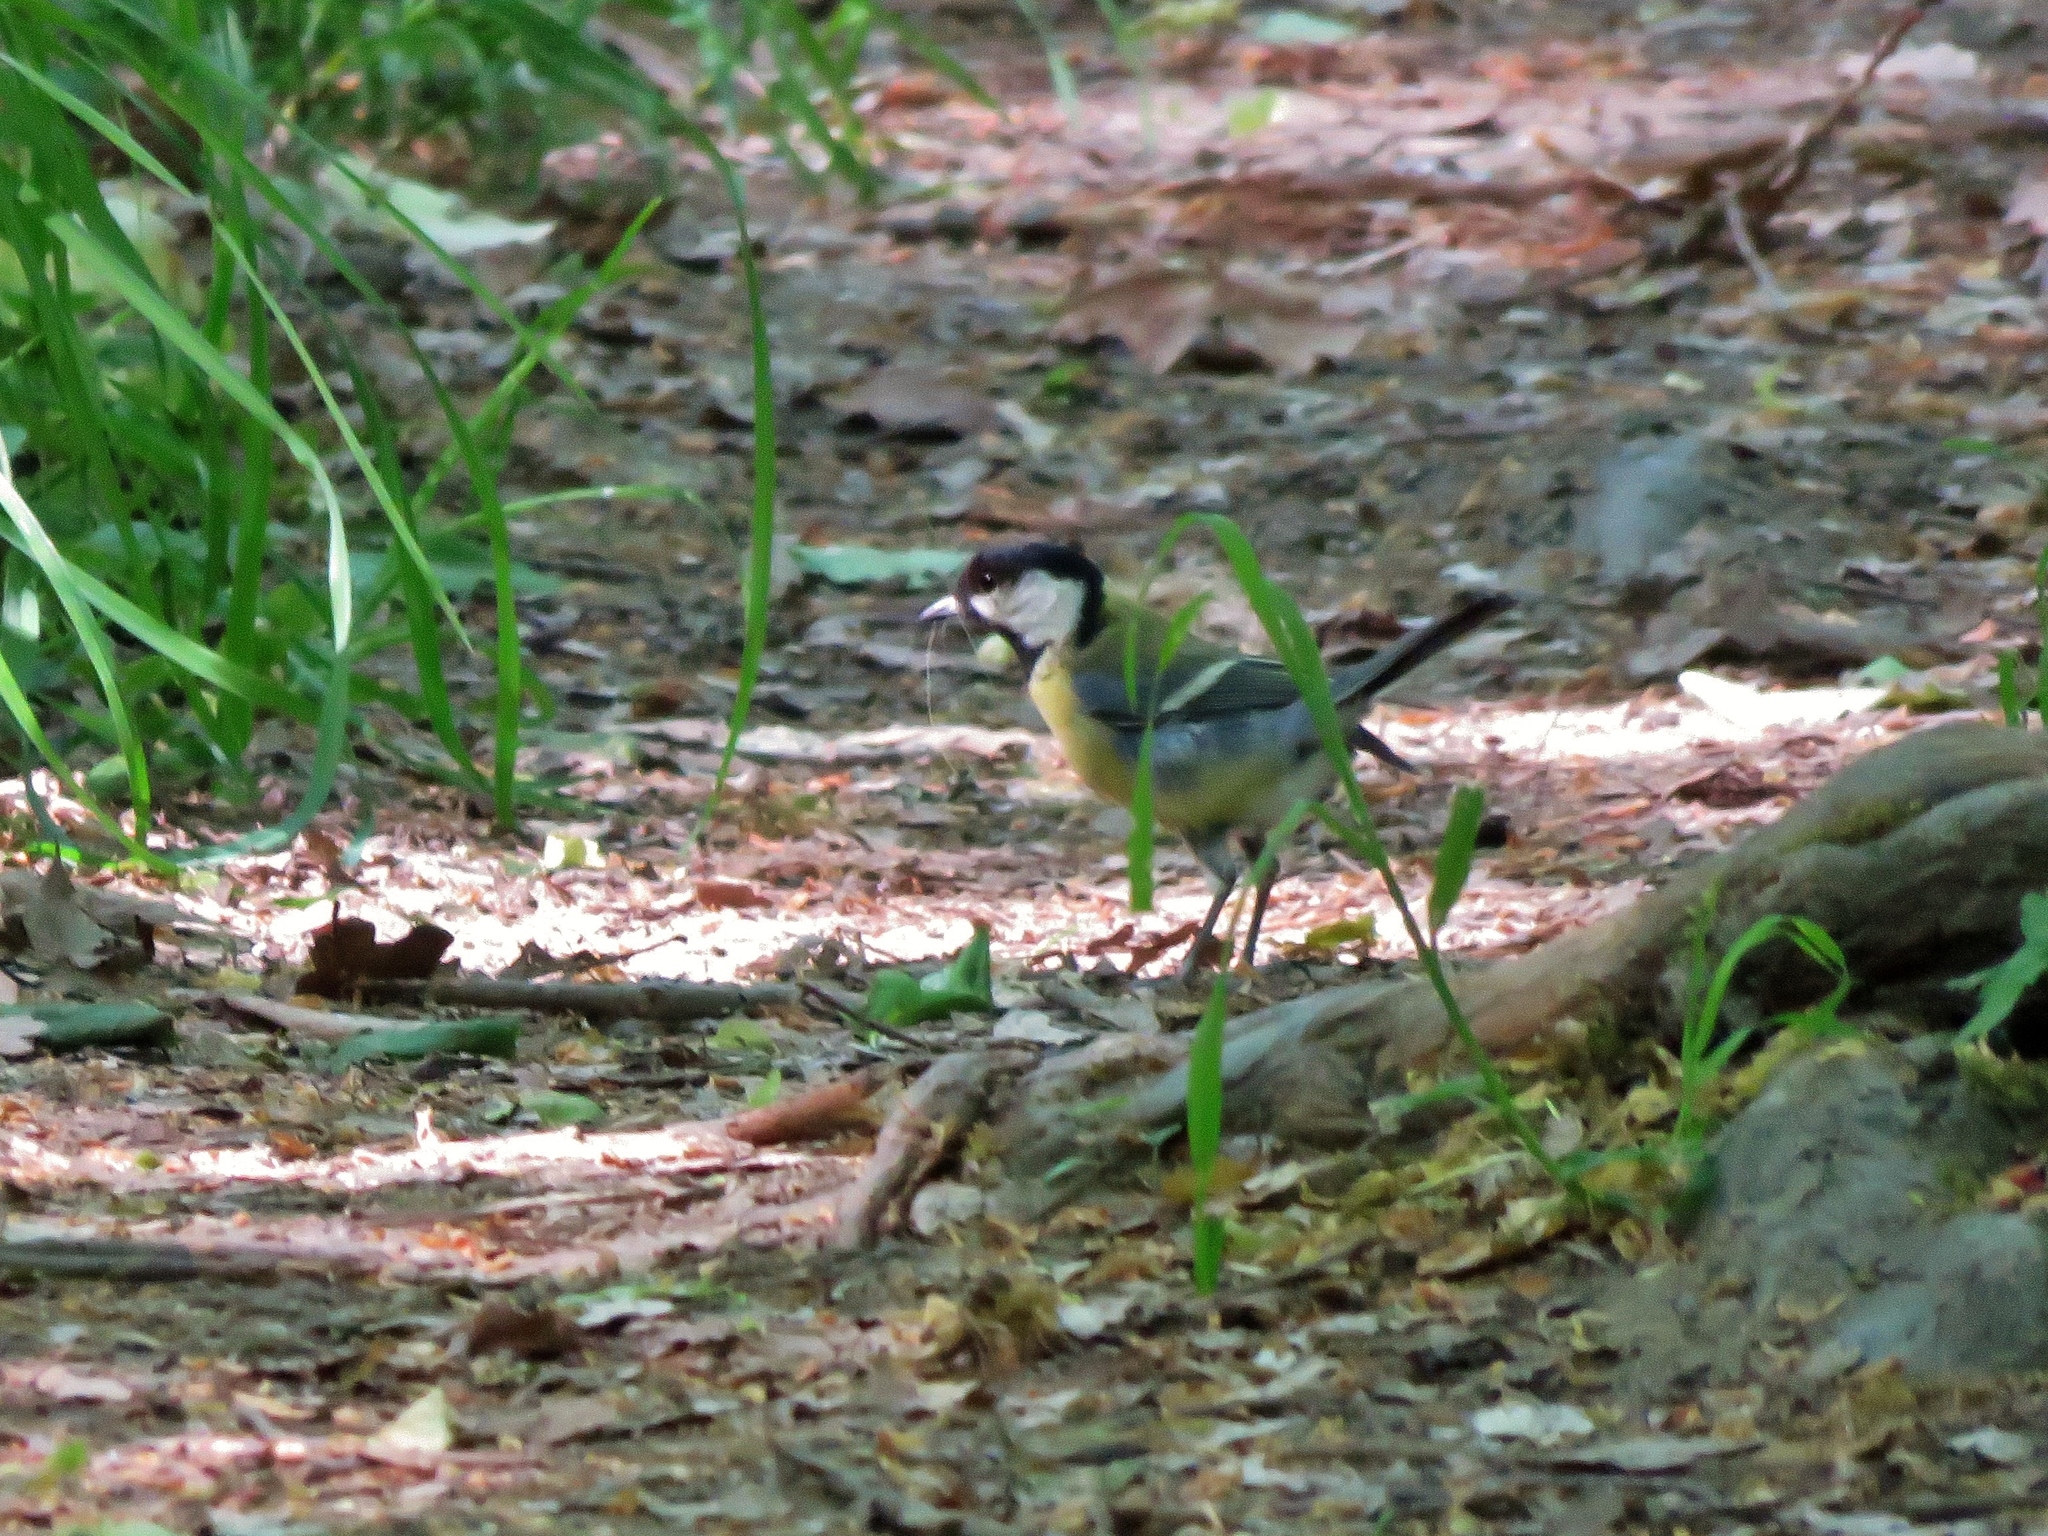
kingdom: Animalia
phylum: Chordata
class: Aves
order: Passeriformes
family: Paridae
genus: Parus
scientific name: Parus major
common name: Great tit
